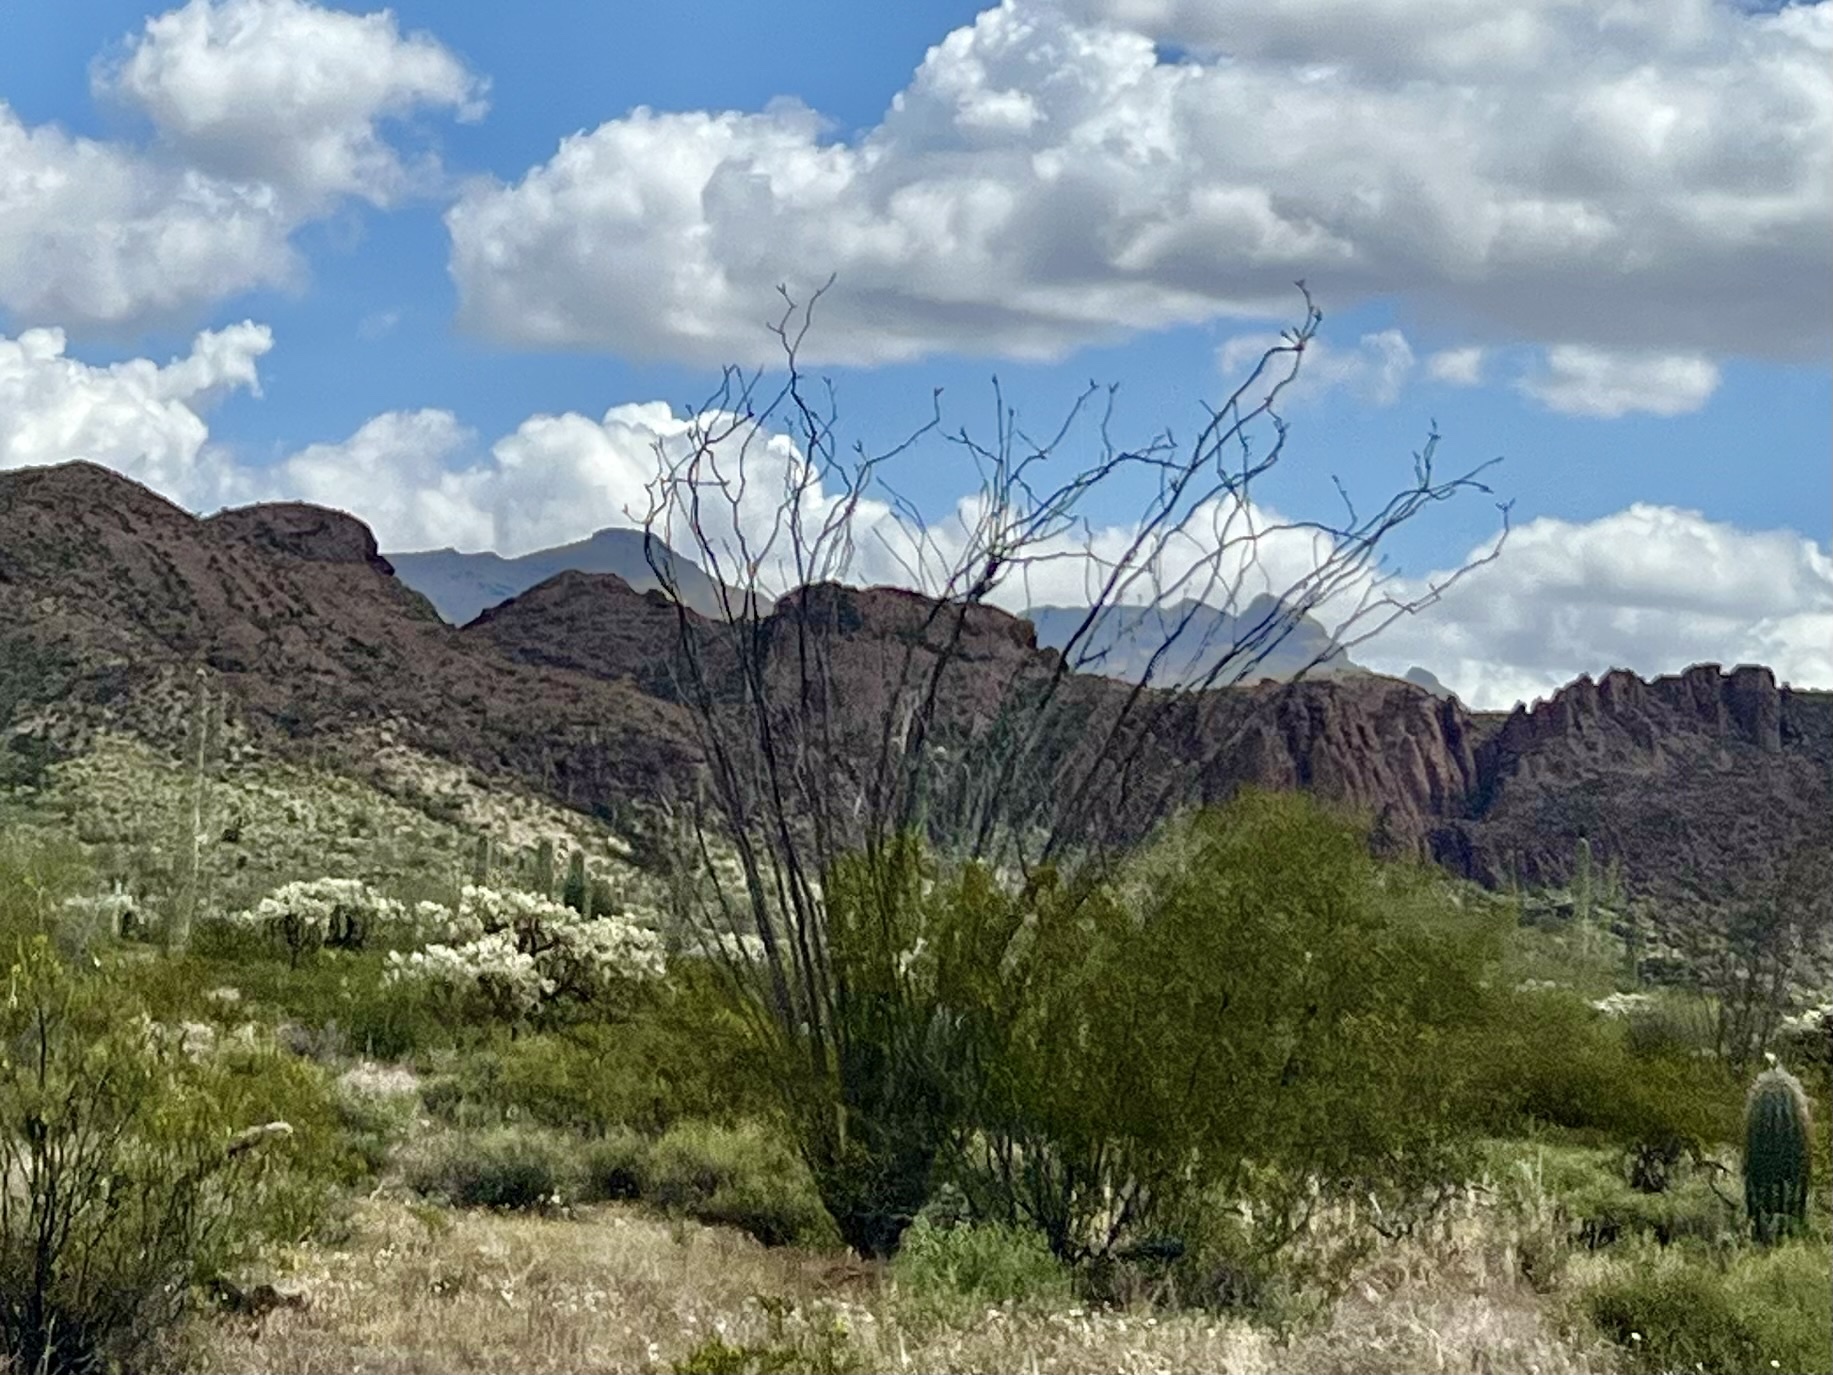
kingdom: Plantae
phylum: Tracheophyta
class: Magnoliopsida
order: Ericales
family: Fouquieriaceae
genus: Fouquieria
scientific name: Fouquieria splendens
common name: Vine-cactus
